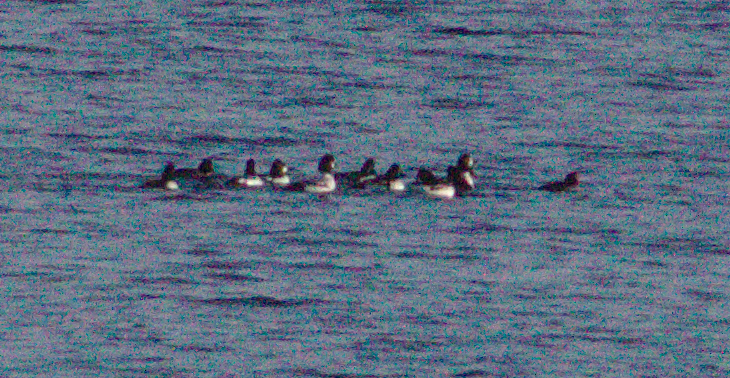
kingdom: Animalia
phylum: Chordata
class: Aves
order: Anseriformes
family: Anatidae
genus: Bucephala
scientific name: Bucephala clangula
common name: Common goldeneye
